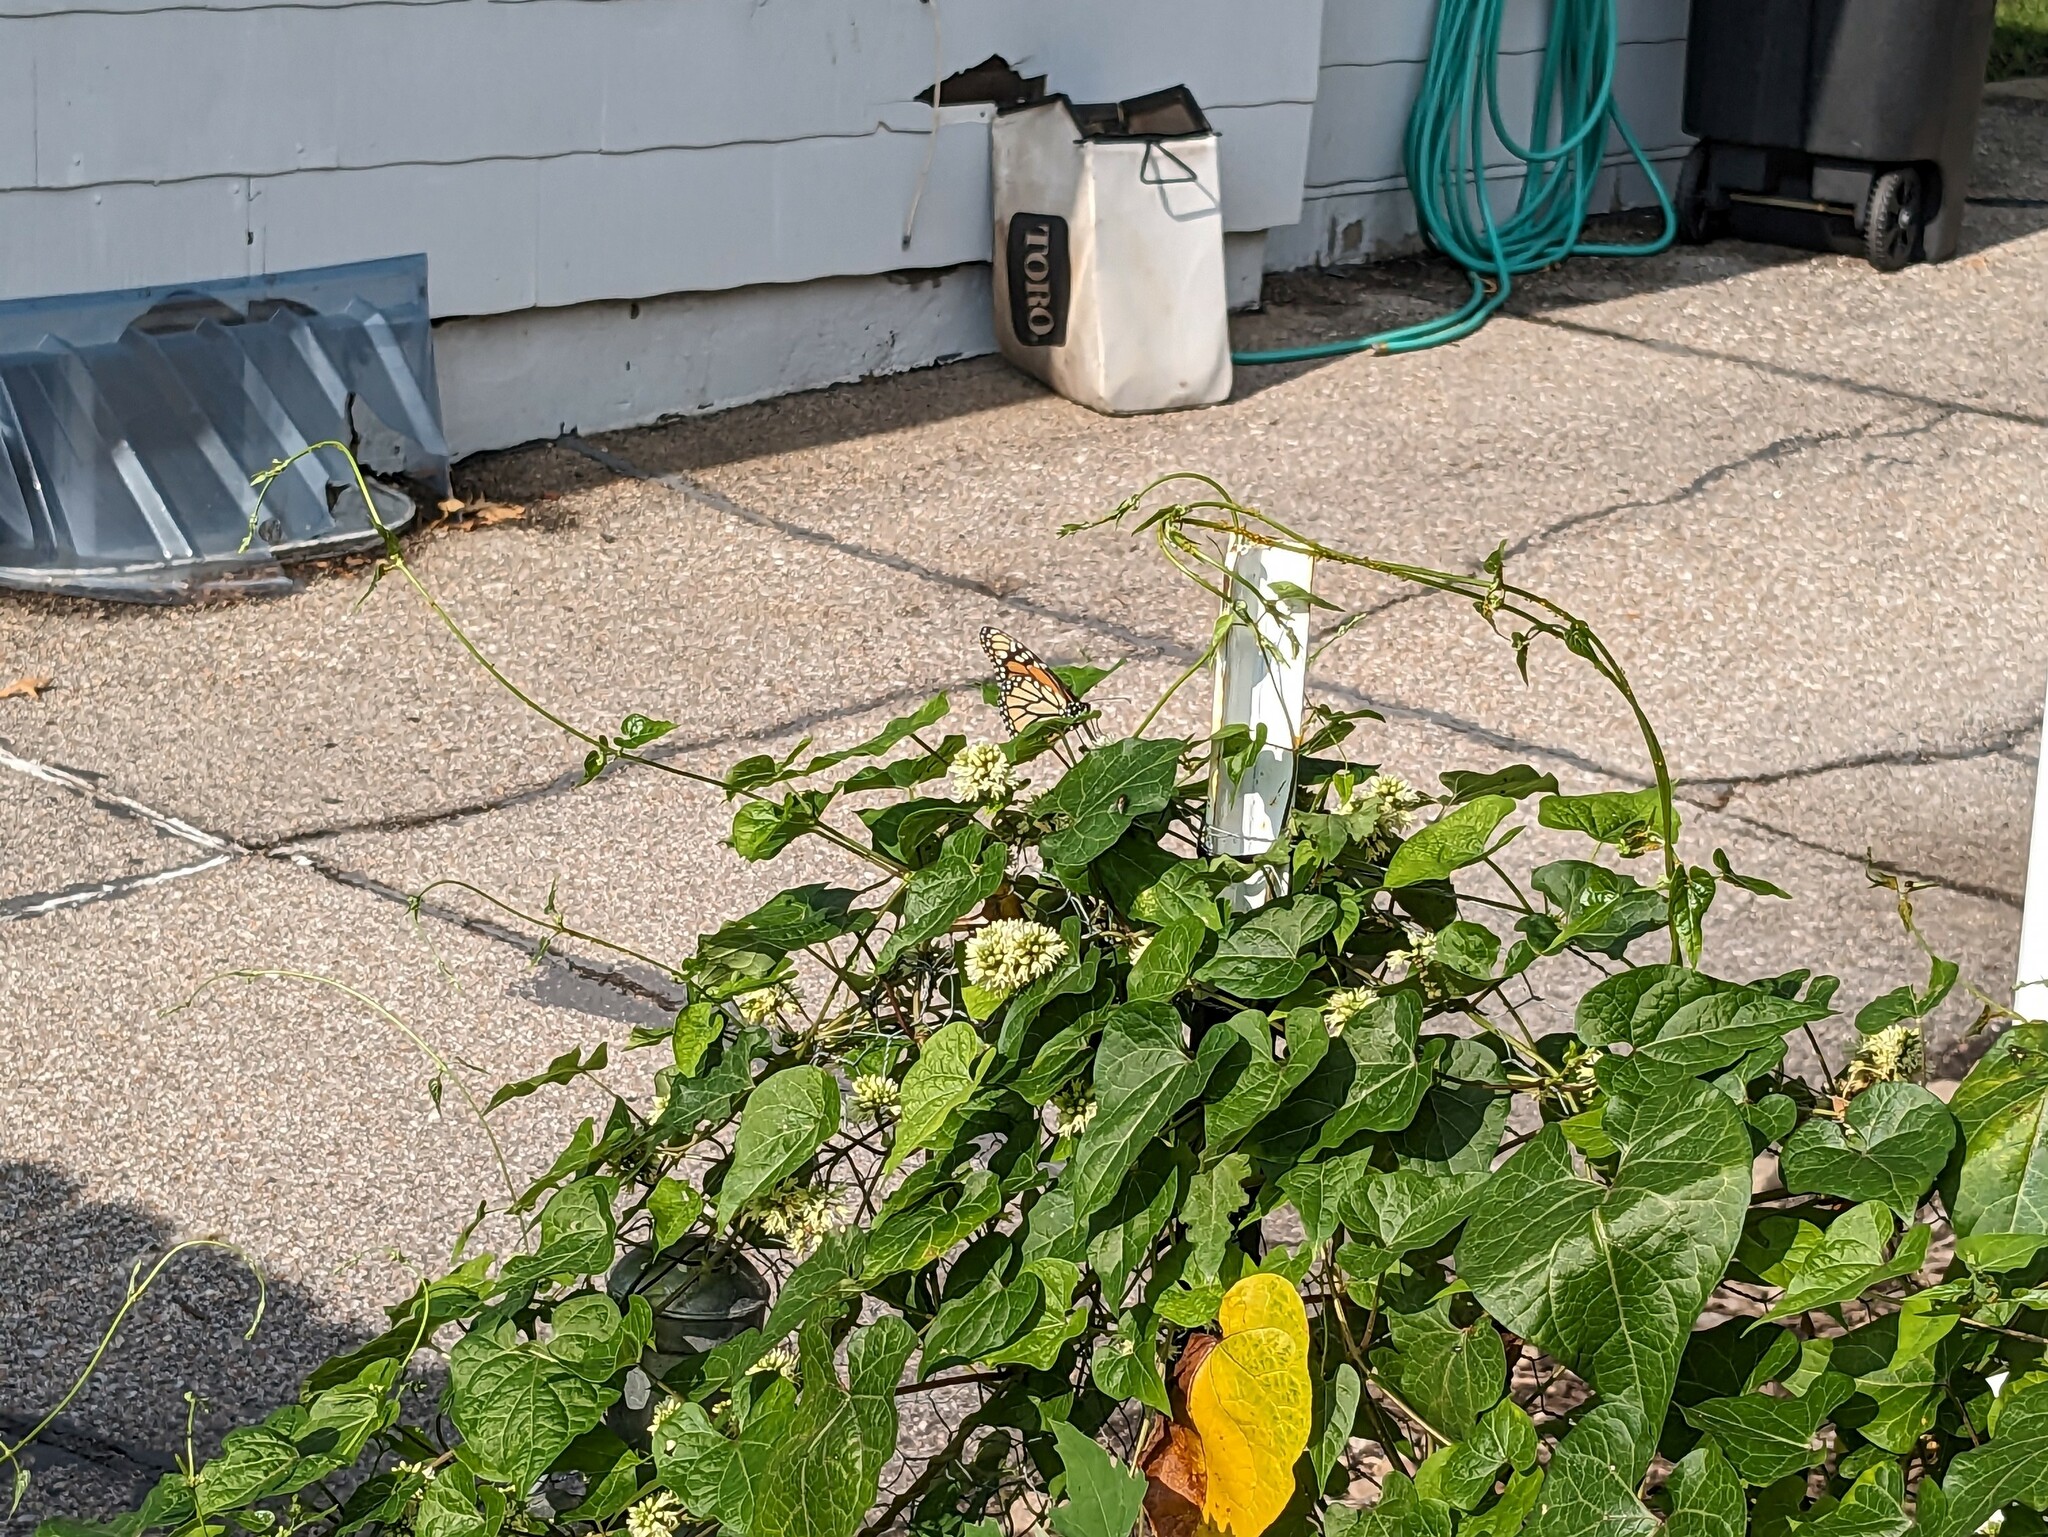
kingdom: Animalia
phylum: Arthropoda
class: Insecta
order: Lepidoptera
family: Nymphalidae
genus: Danaus
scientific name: Danaus plexippus
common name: Monarch
